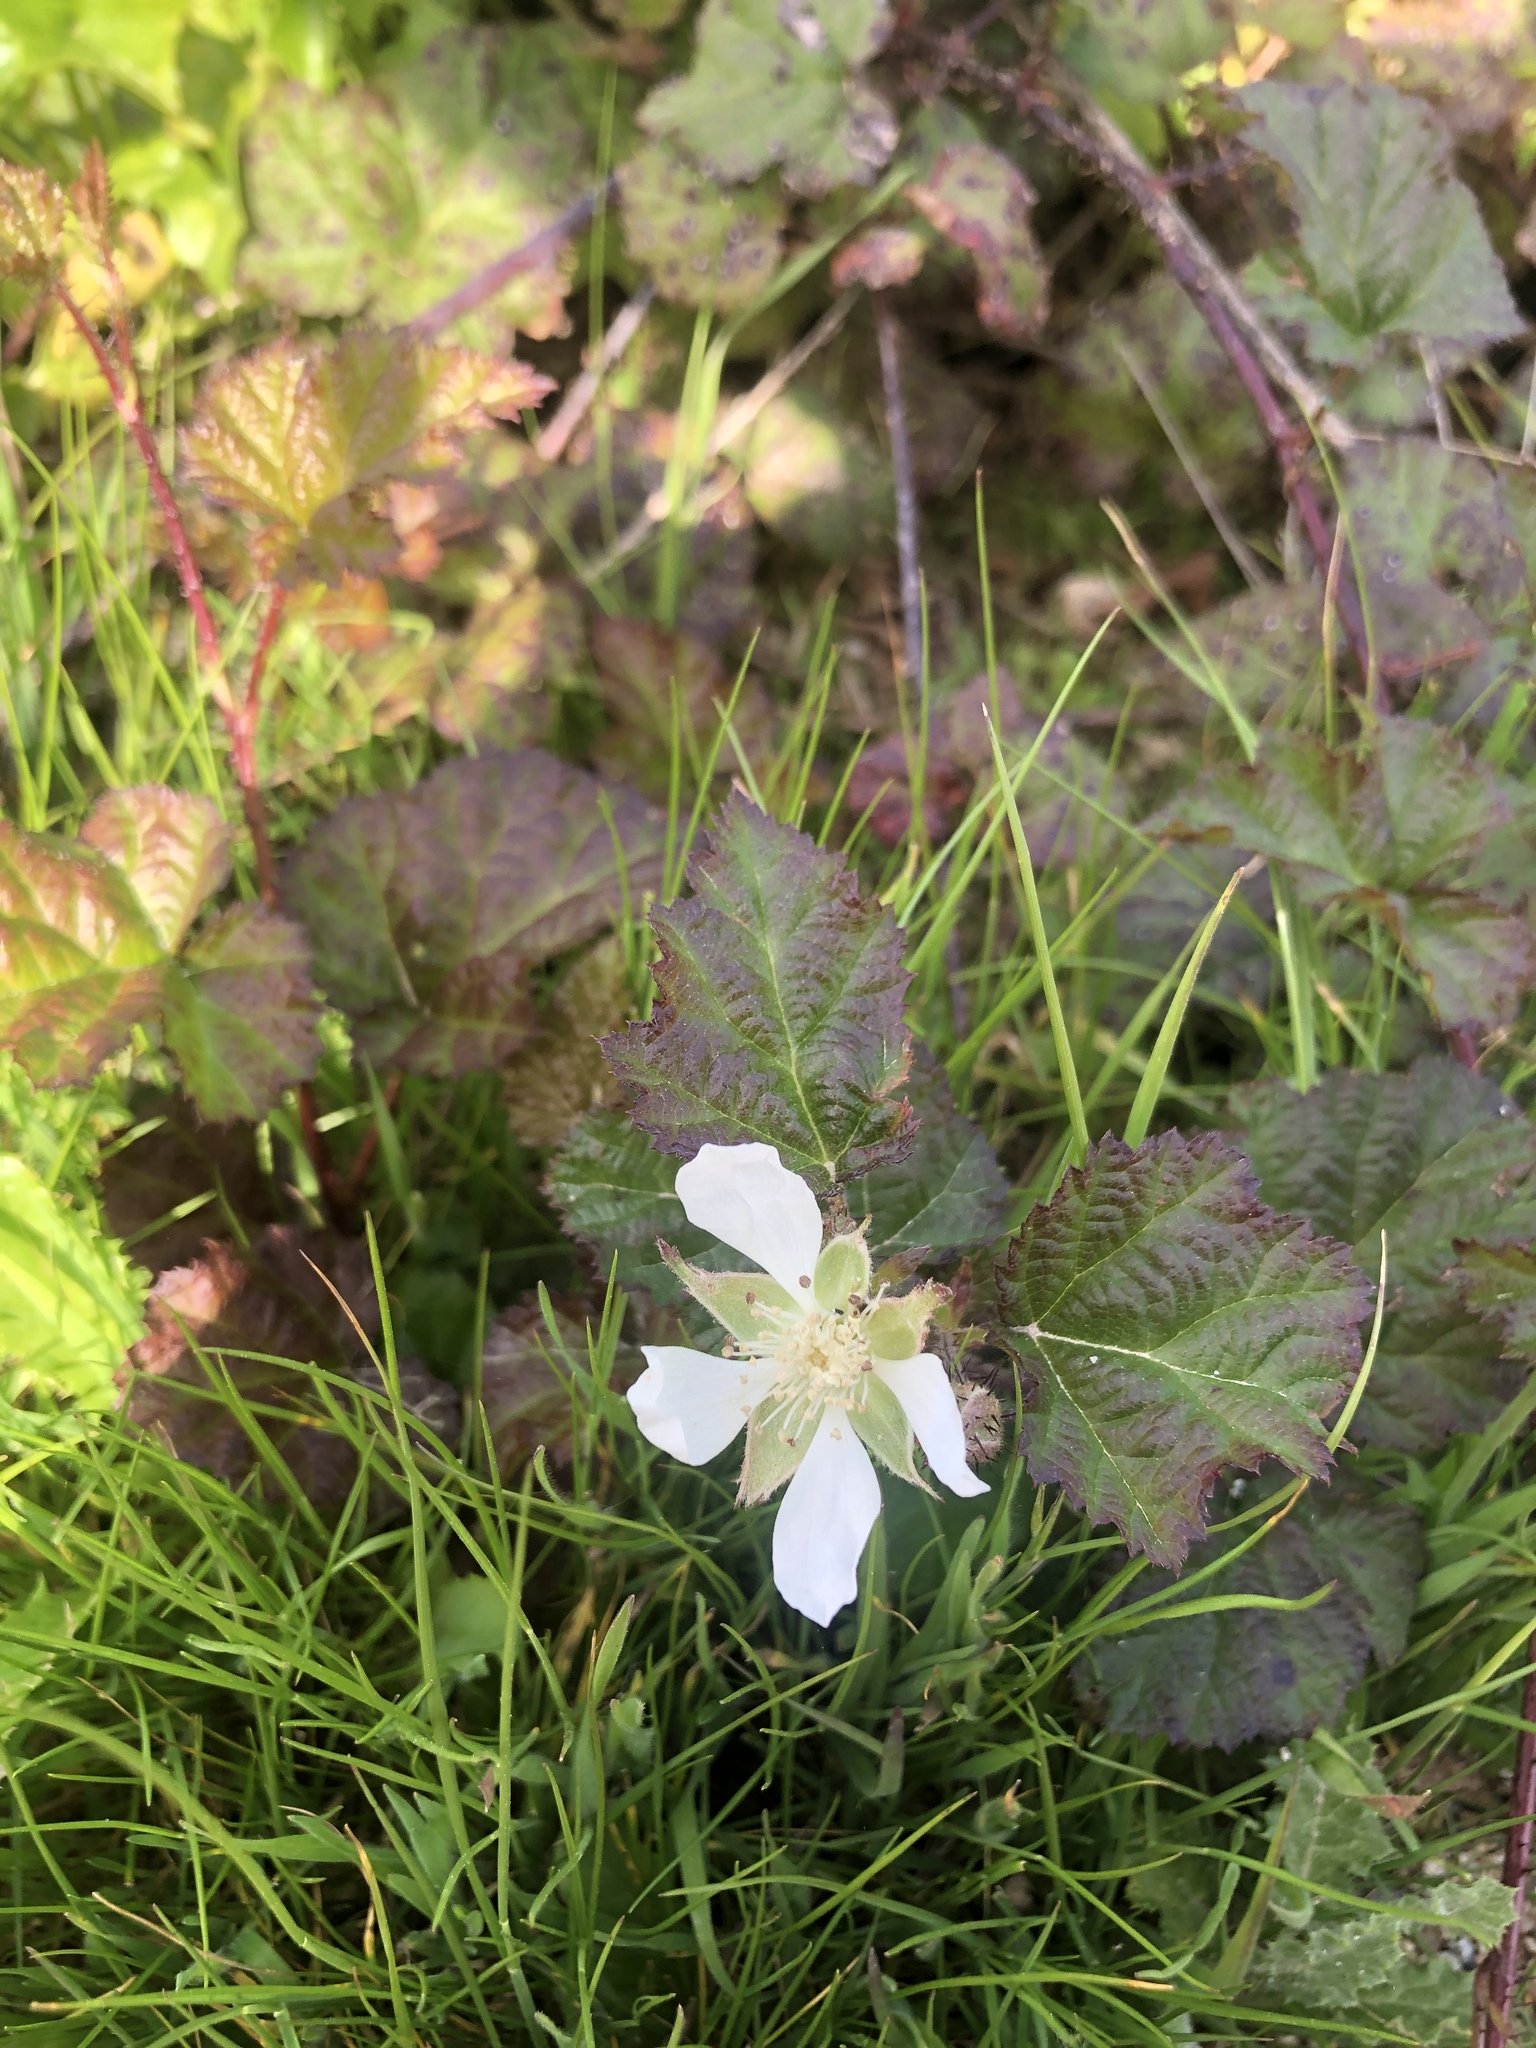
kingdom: Plantae
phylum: Tracheophyta
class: Magnoliopsida
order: Rosales
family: Rosaceae
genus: Rubus
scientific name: Rubus ursinus
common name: Pacific blackberry
